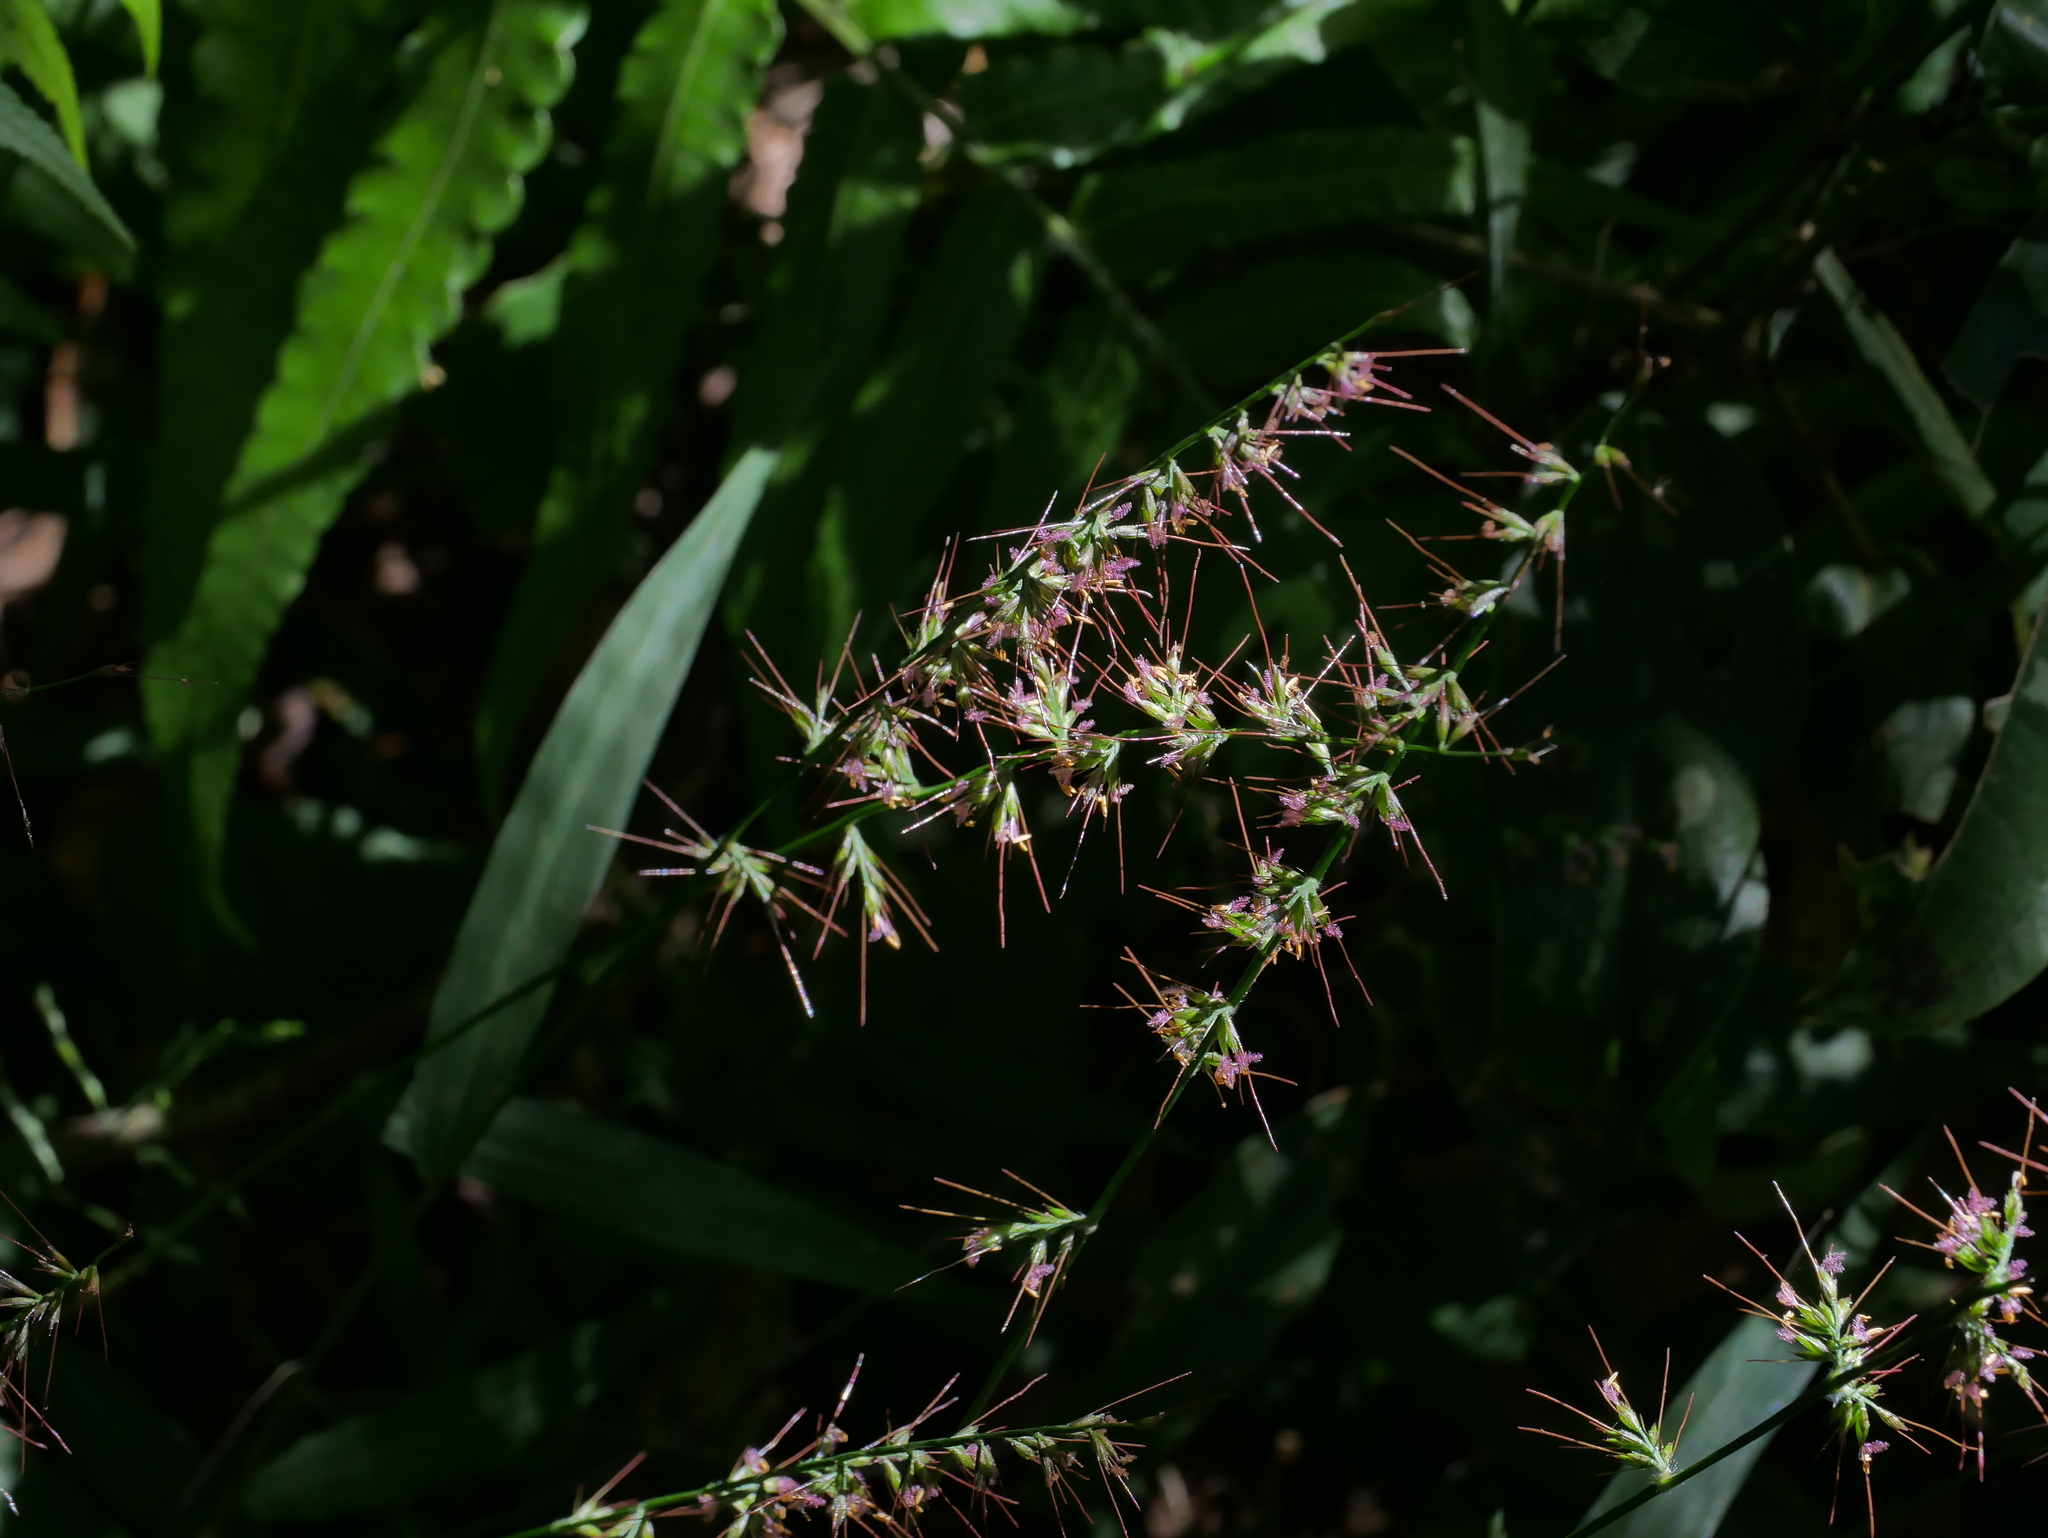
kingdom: Plantae
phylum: Tracheophyta
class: Liliopsida
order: Poales
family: Poaceae
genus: Oplismenus
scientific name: Oplismenus hirtellus
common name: Basketgrass
